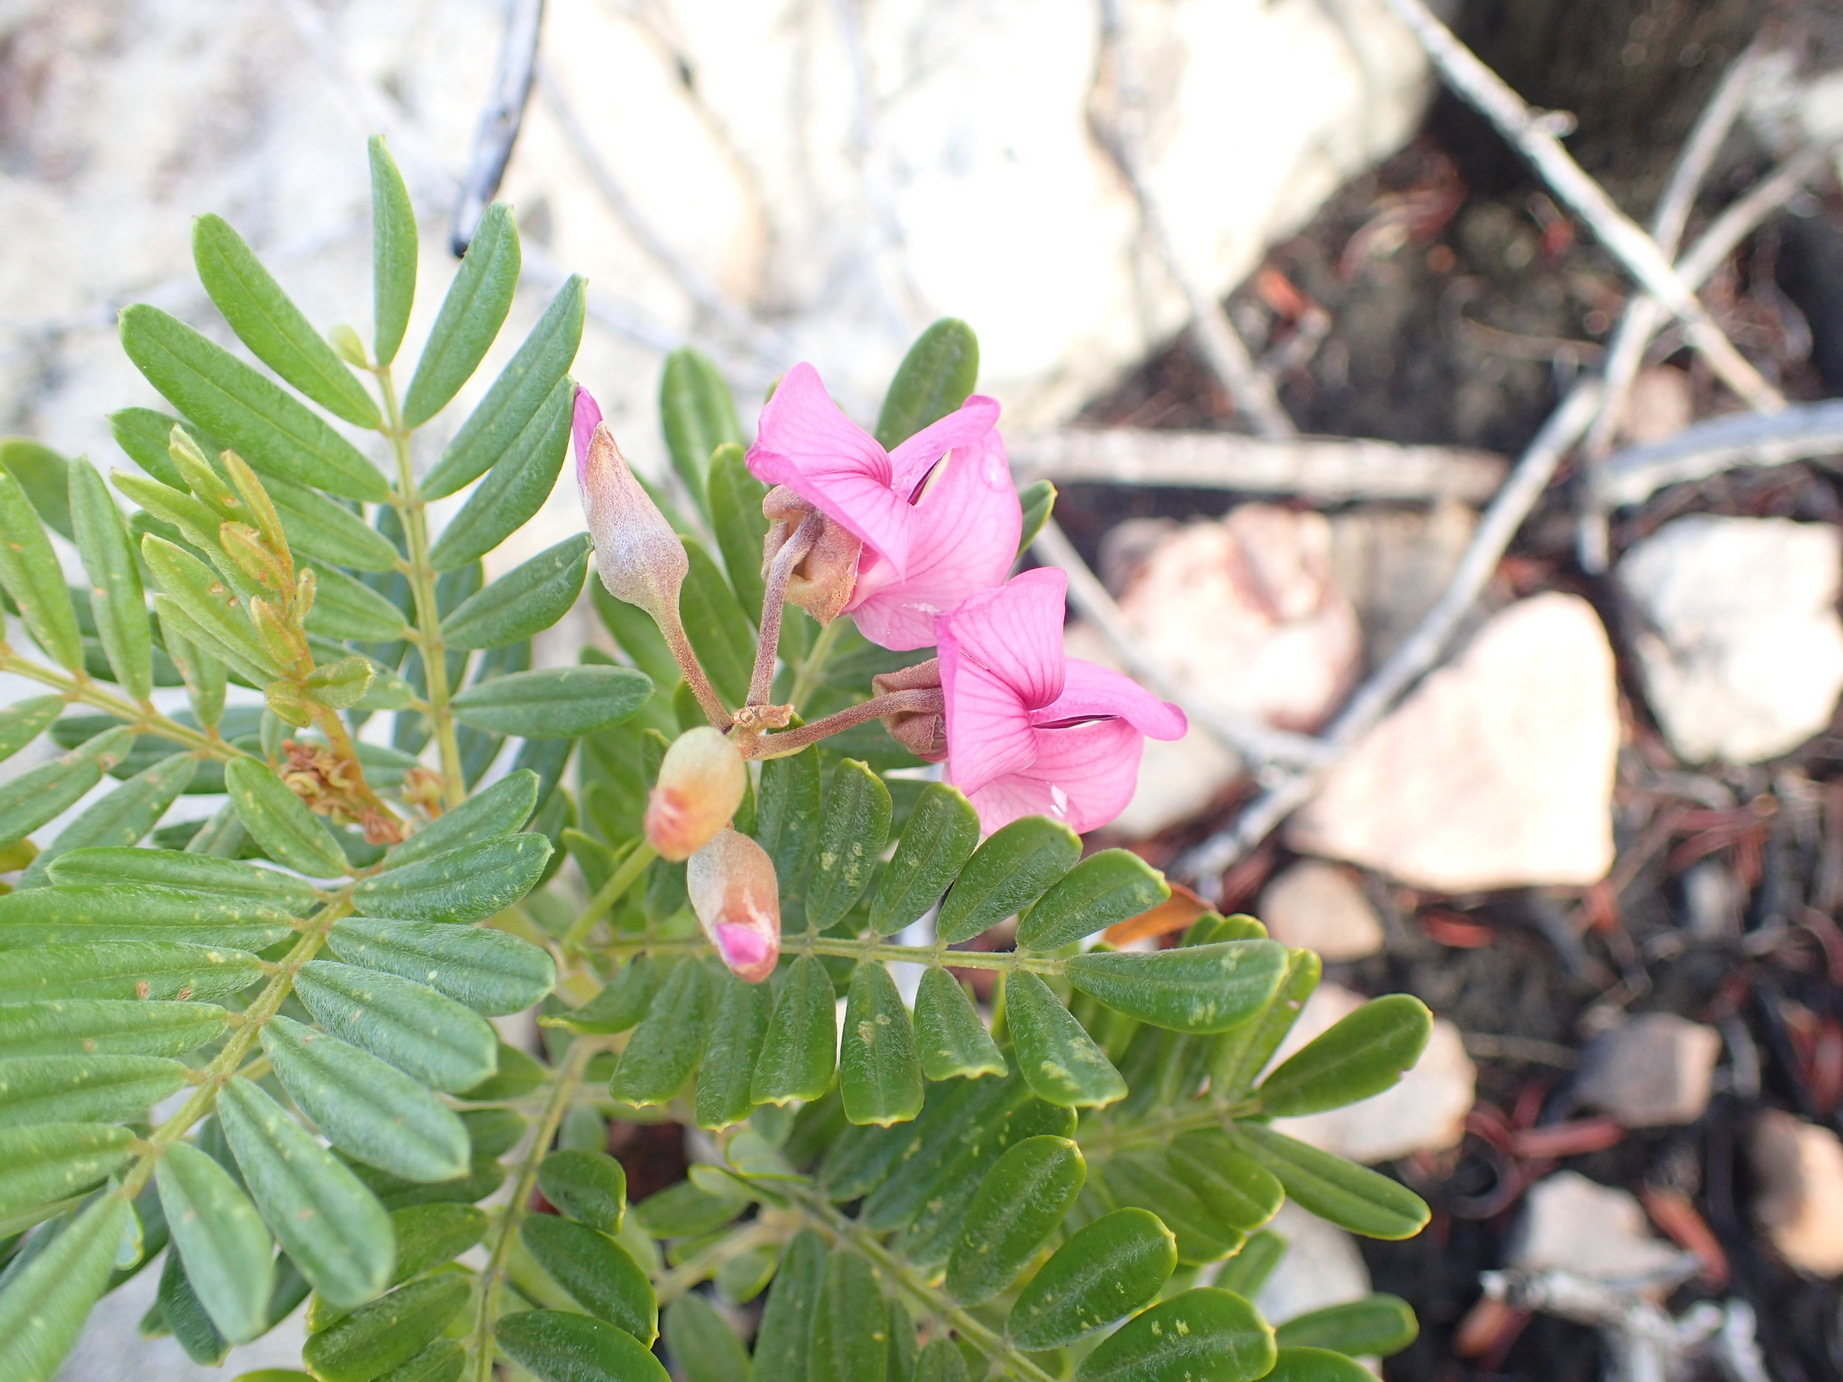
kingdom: Plantae
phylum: Tracheophyta
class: Magnoliopsida
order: Fabales
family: Fabaceae
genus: Virgilia
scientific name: Virgilia divaricata
